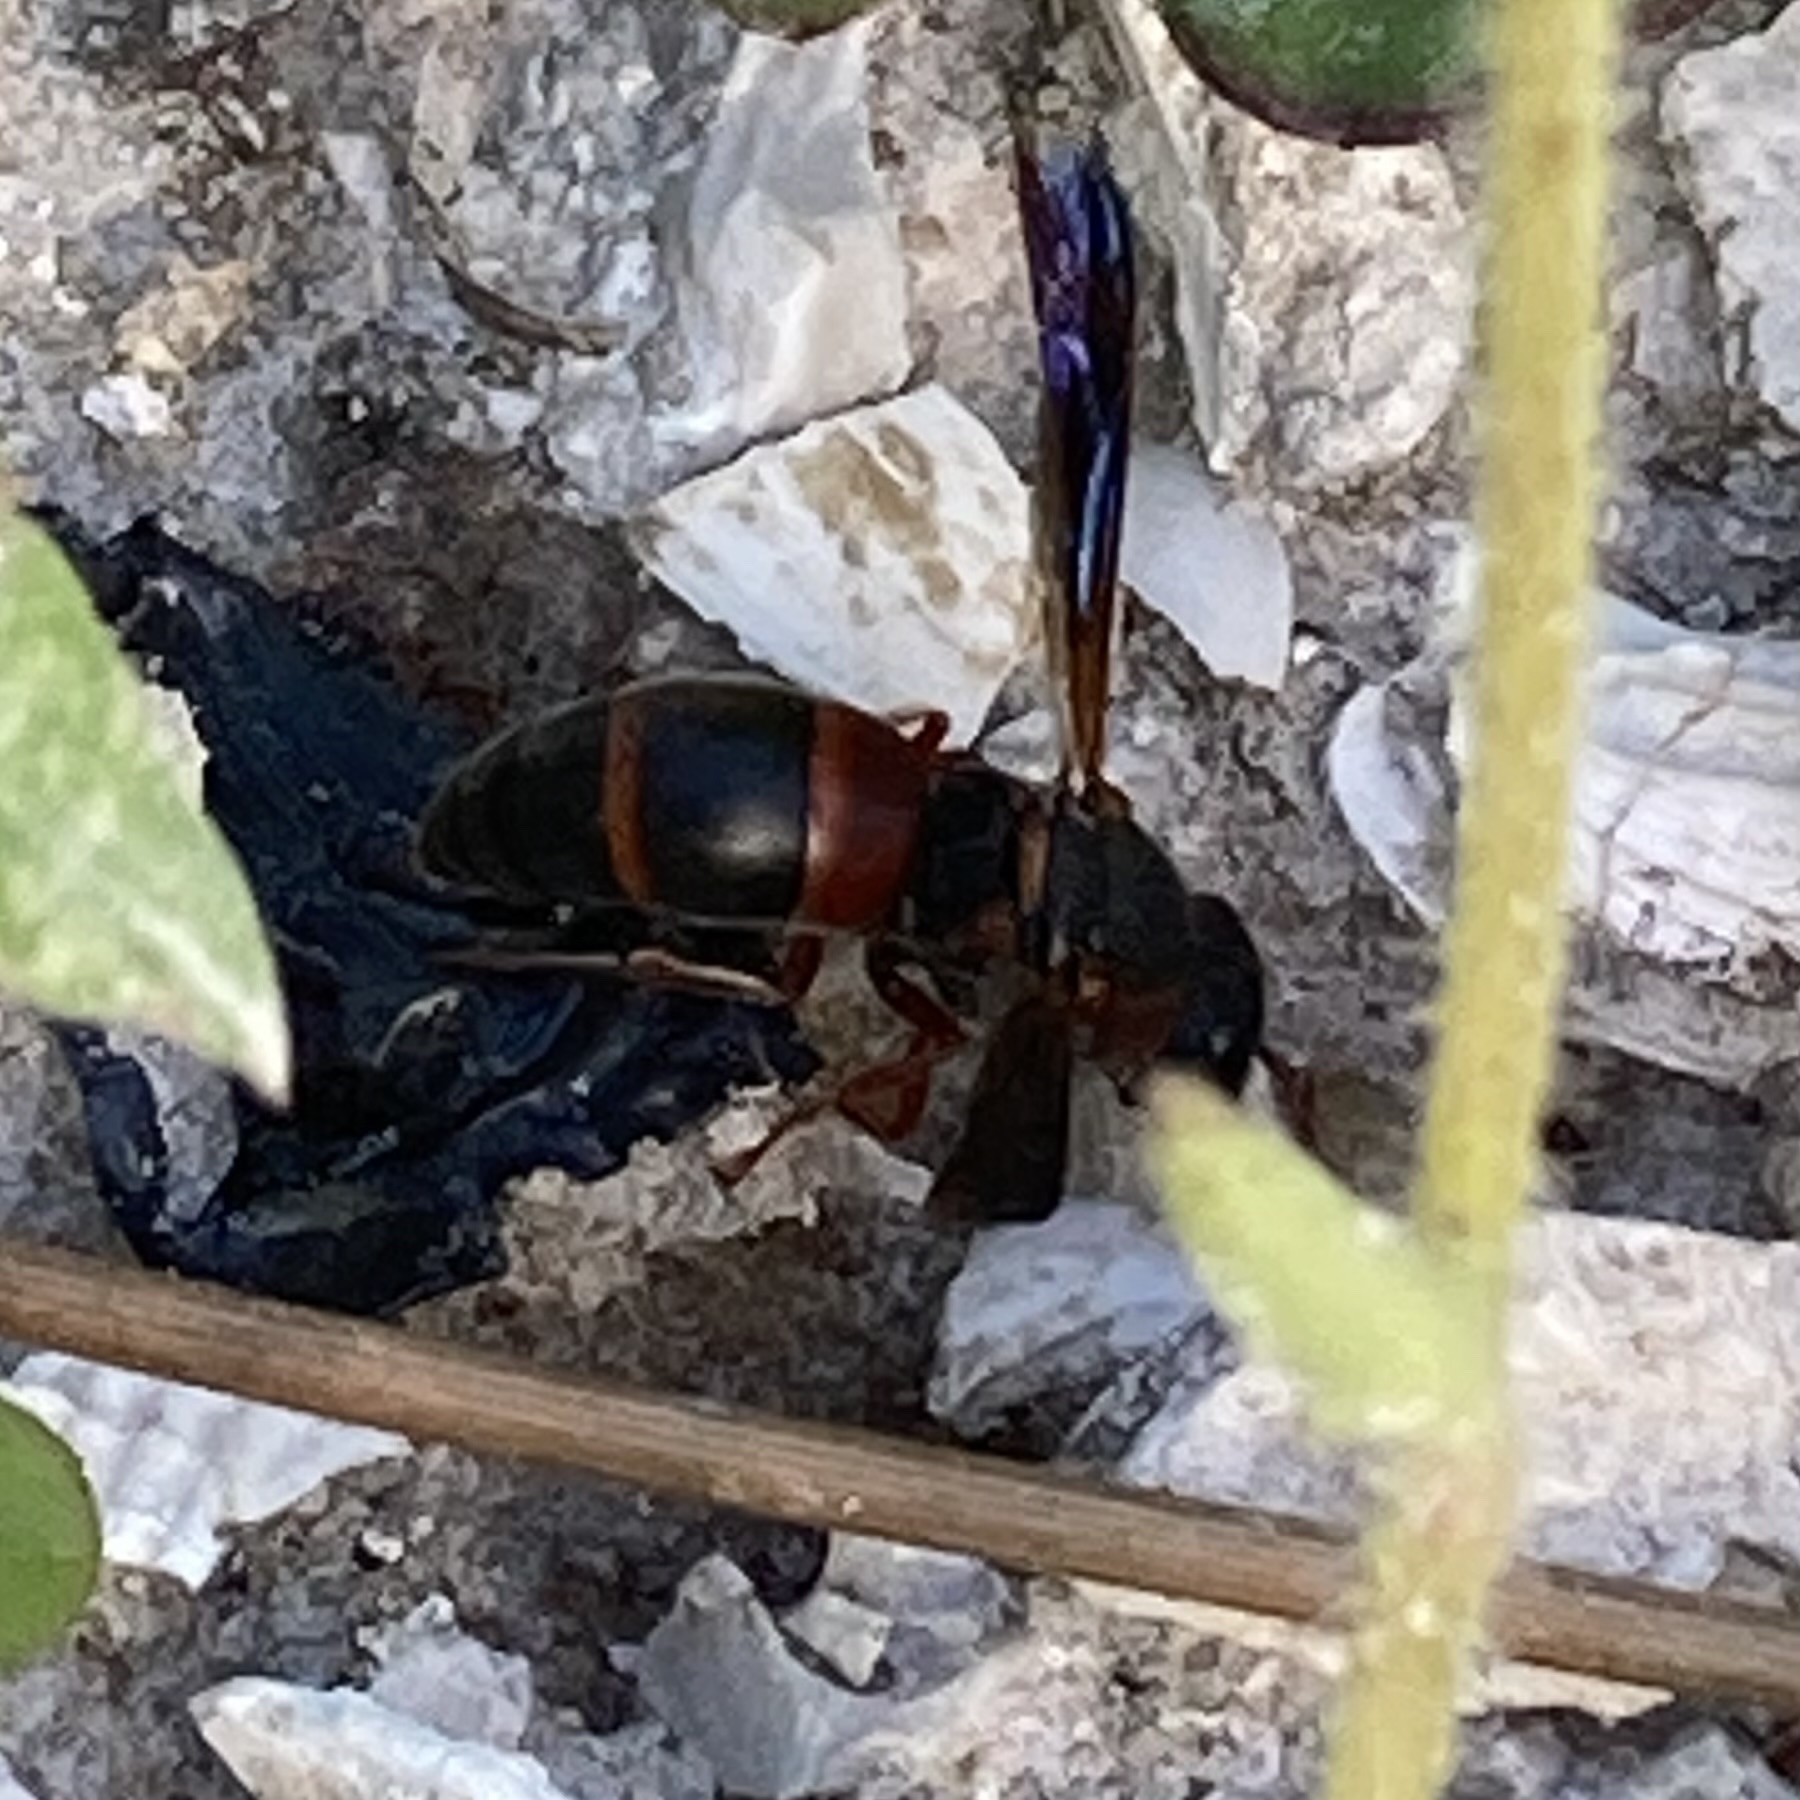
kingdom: Animalia
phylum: Arthropoda
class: Insecta
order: Hymenoptera
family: Eumenidae
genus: Pachodynerus
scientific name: Pachodynerus erynnis
